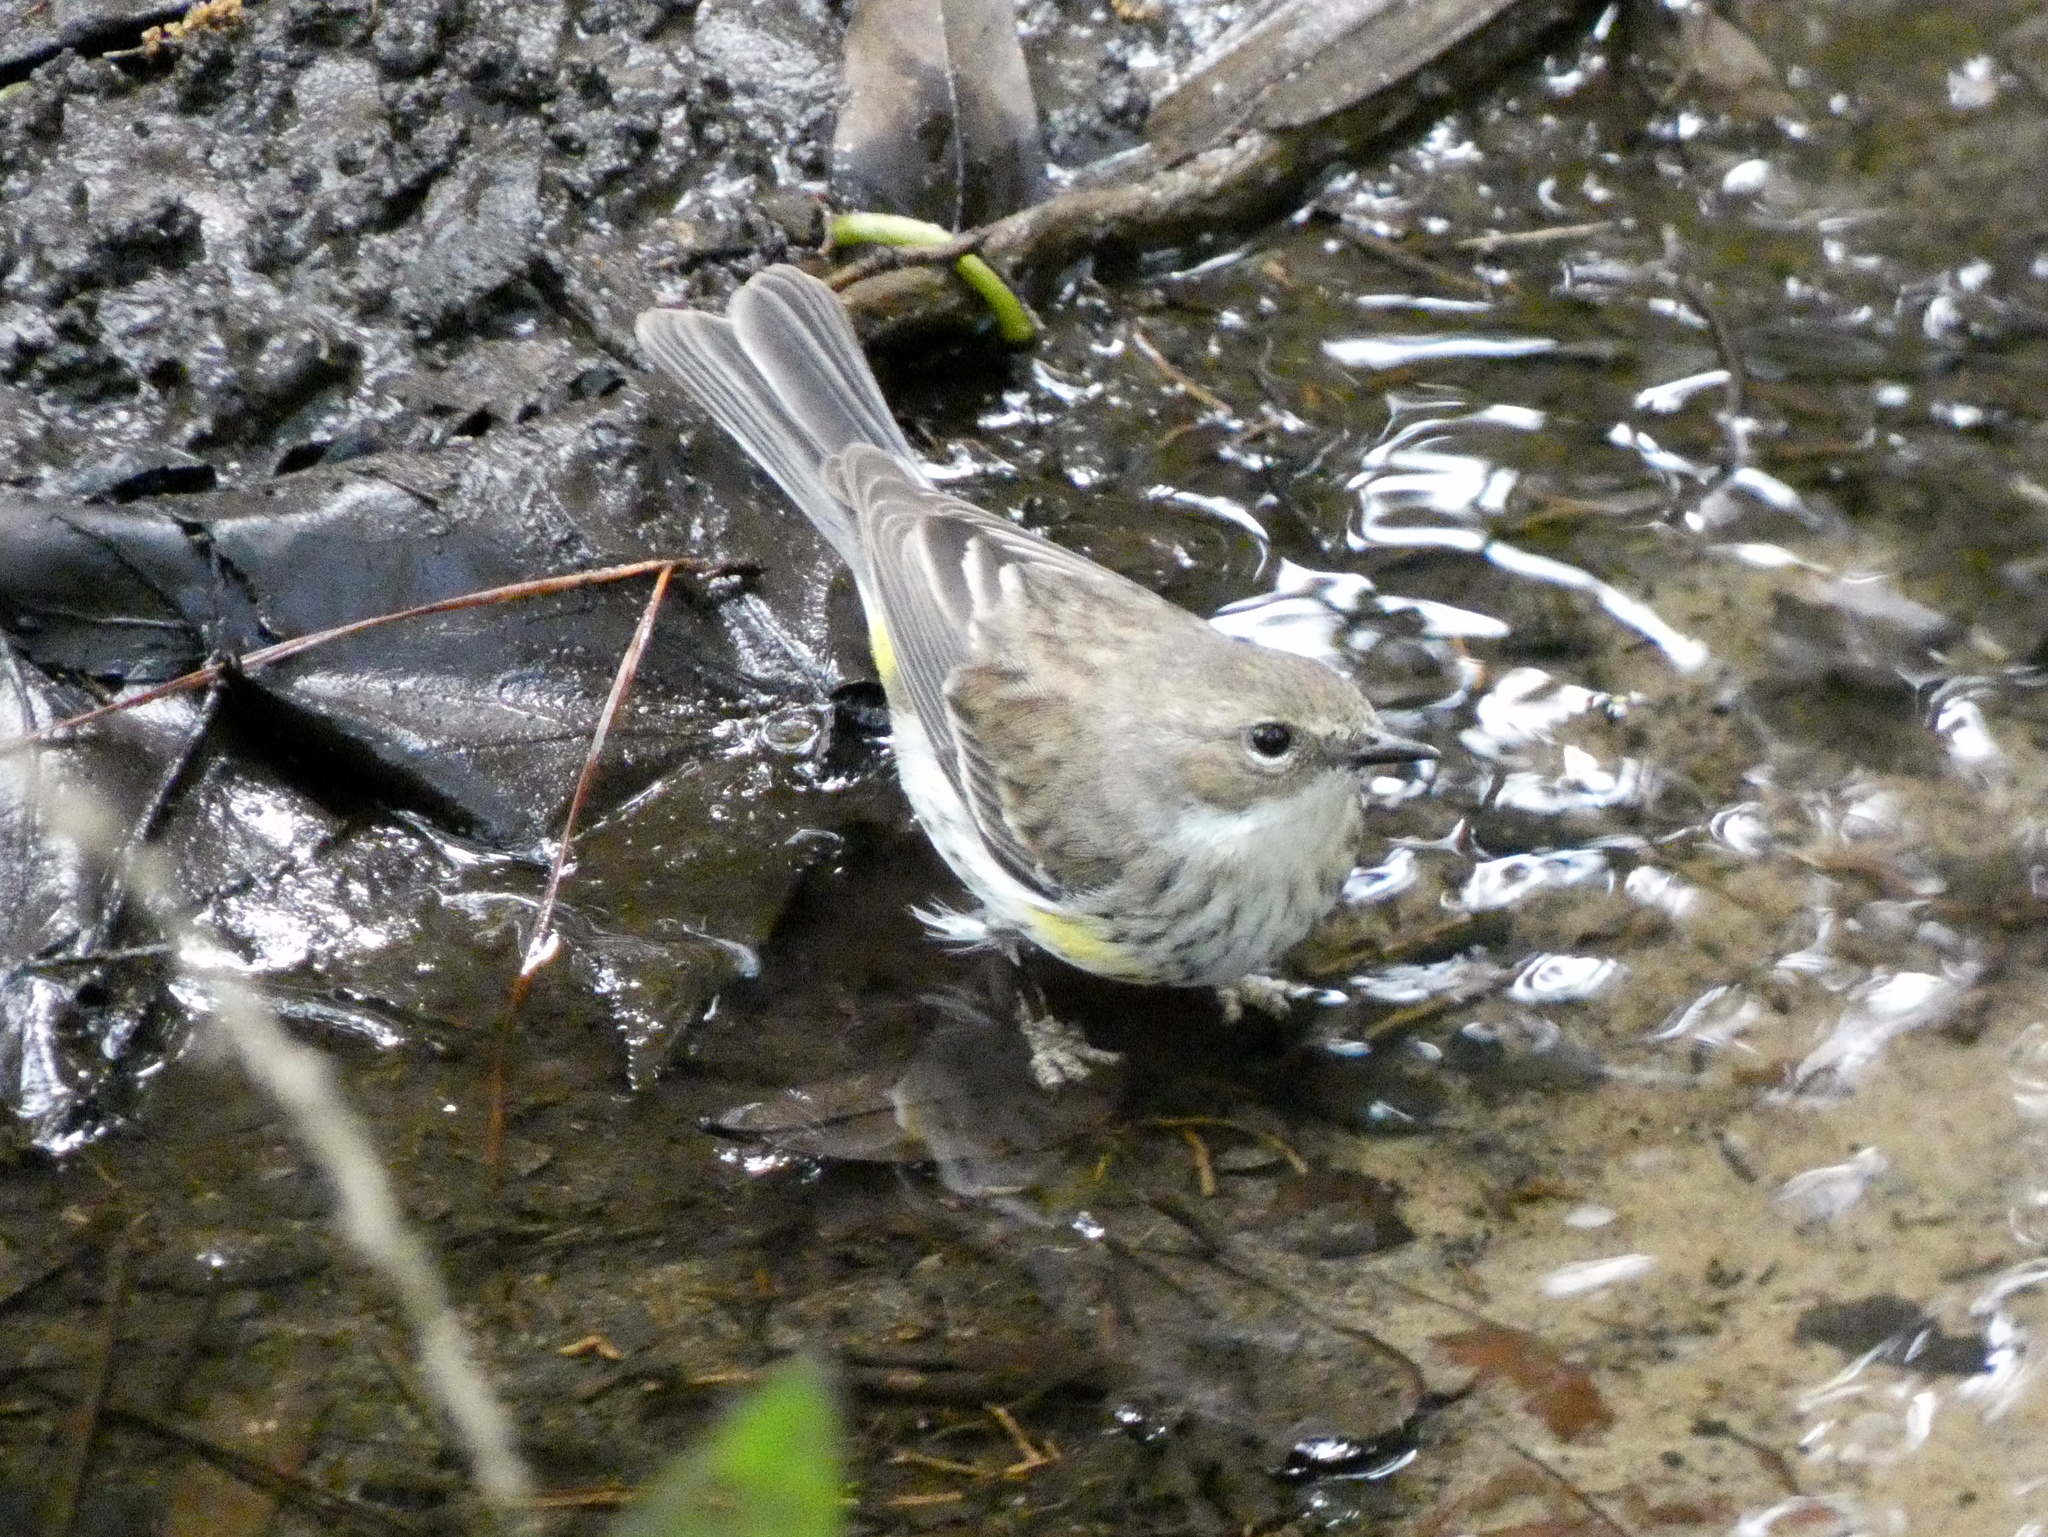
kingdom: Animalia
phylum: Chordata
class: Aves
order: Passeriformes
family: Parulidae
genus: Setophaga
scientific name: Setophaga coronata
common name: Myrtle warbler
